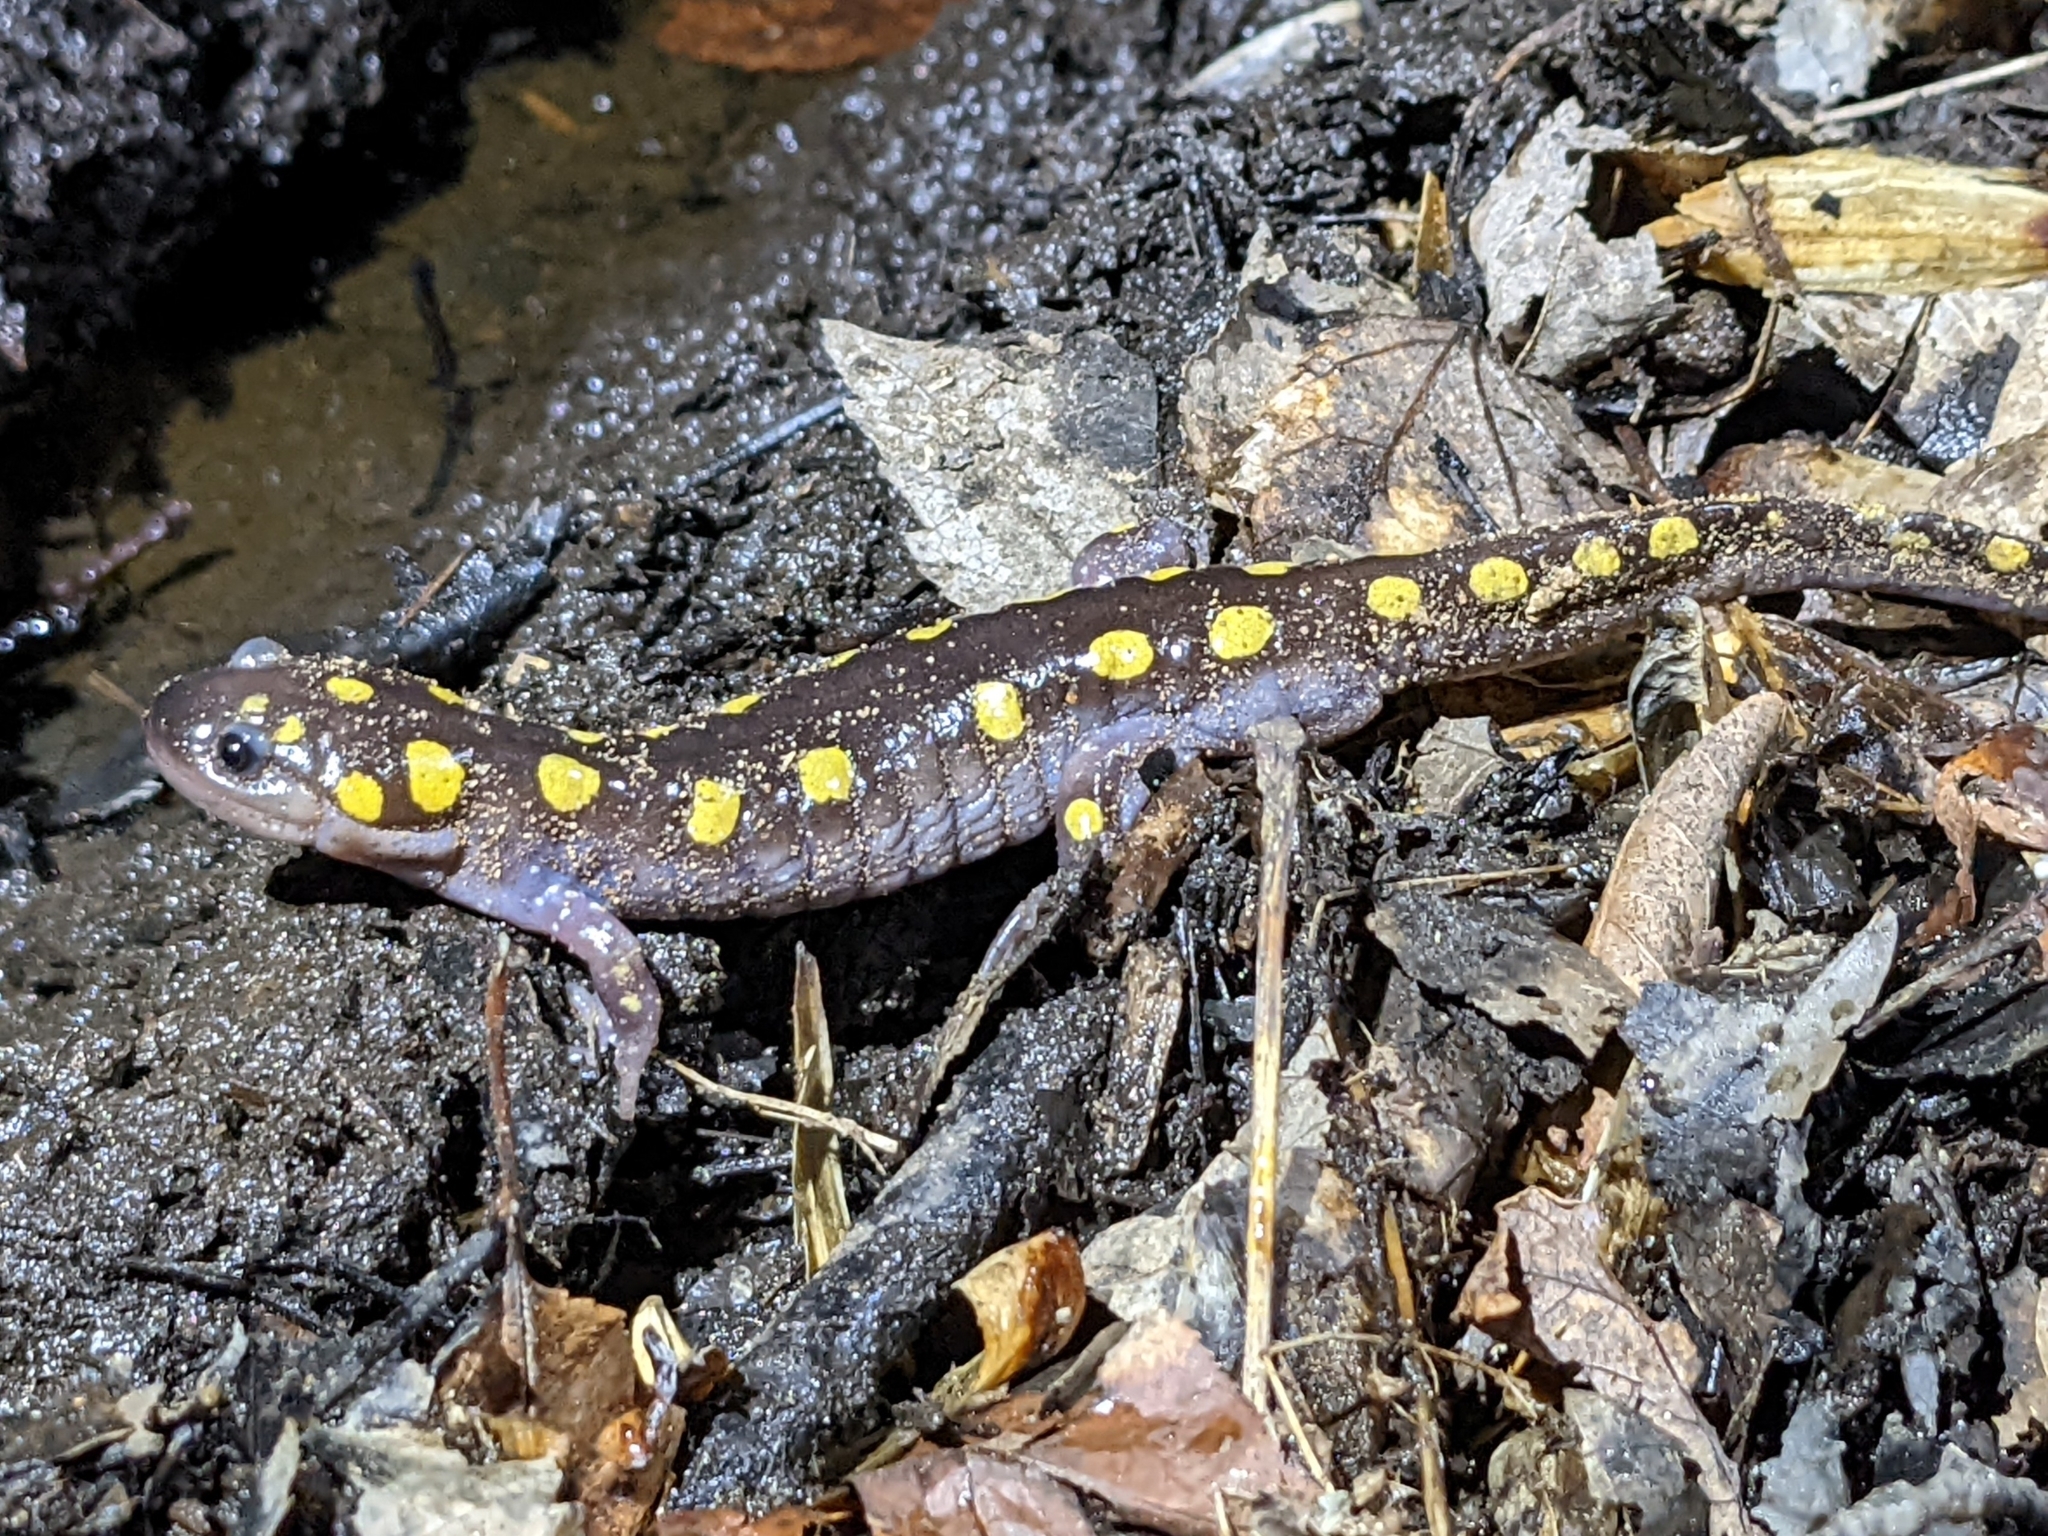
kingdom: Animalia
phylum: Chordata
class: Amphibia
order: Caudata
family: Ambystomatidae
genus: Ambystoma
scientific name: Ambystoma maculatum
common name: Spotted salamander
